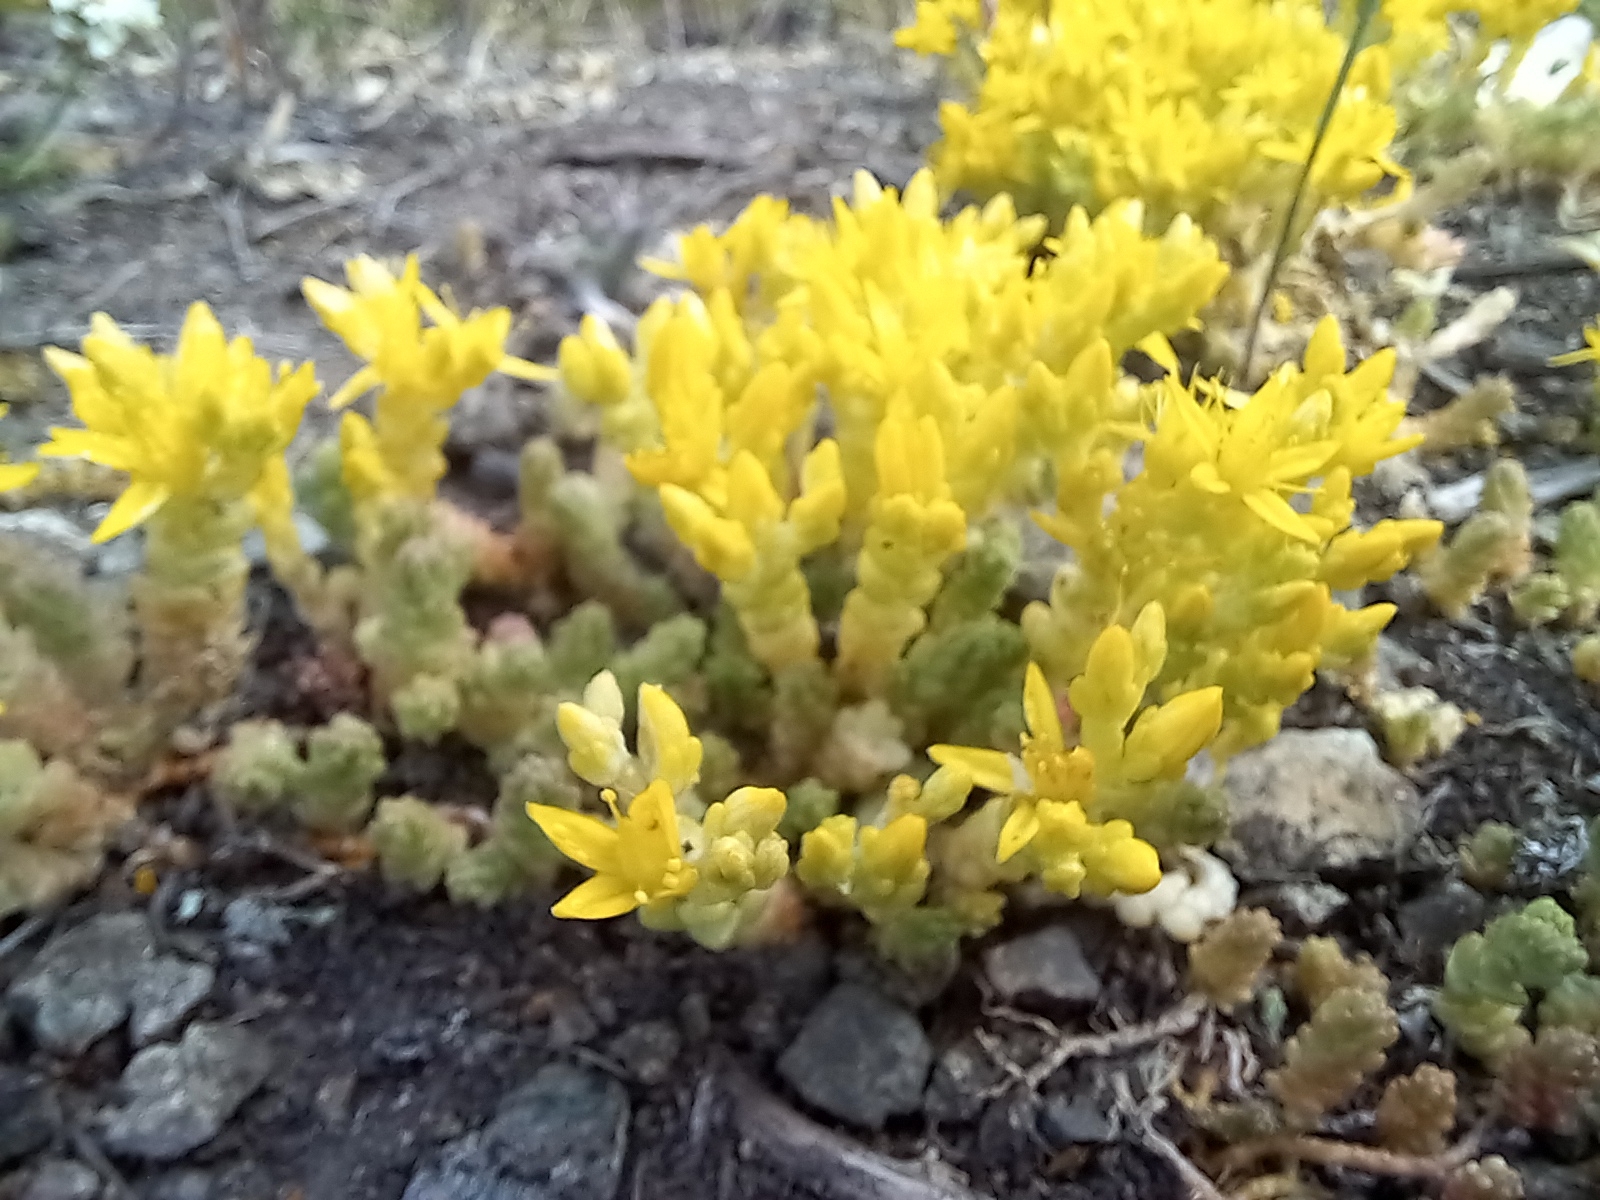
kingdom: Plantae
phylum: Tracheophyta
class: Magnoliopsida
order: Saxifragales
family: Crassulaceae
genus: Sedum
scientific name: Sedum acre
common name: Biting stonecrop
